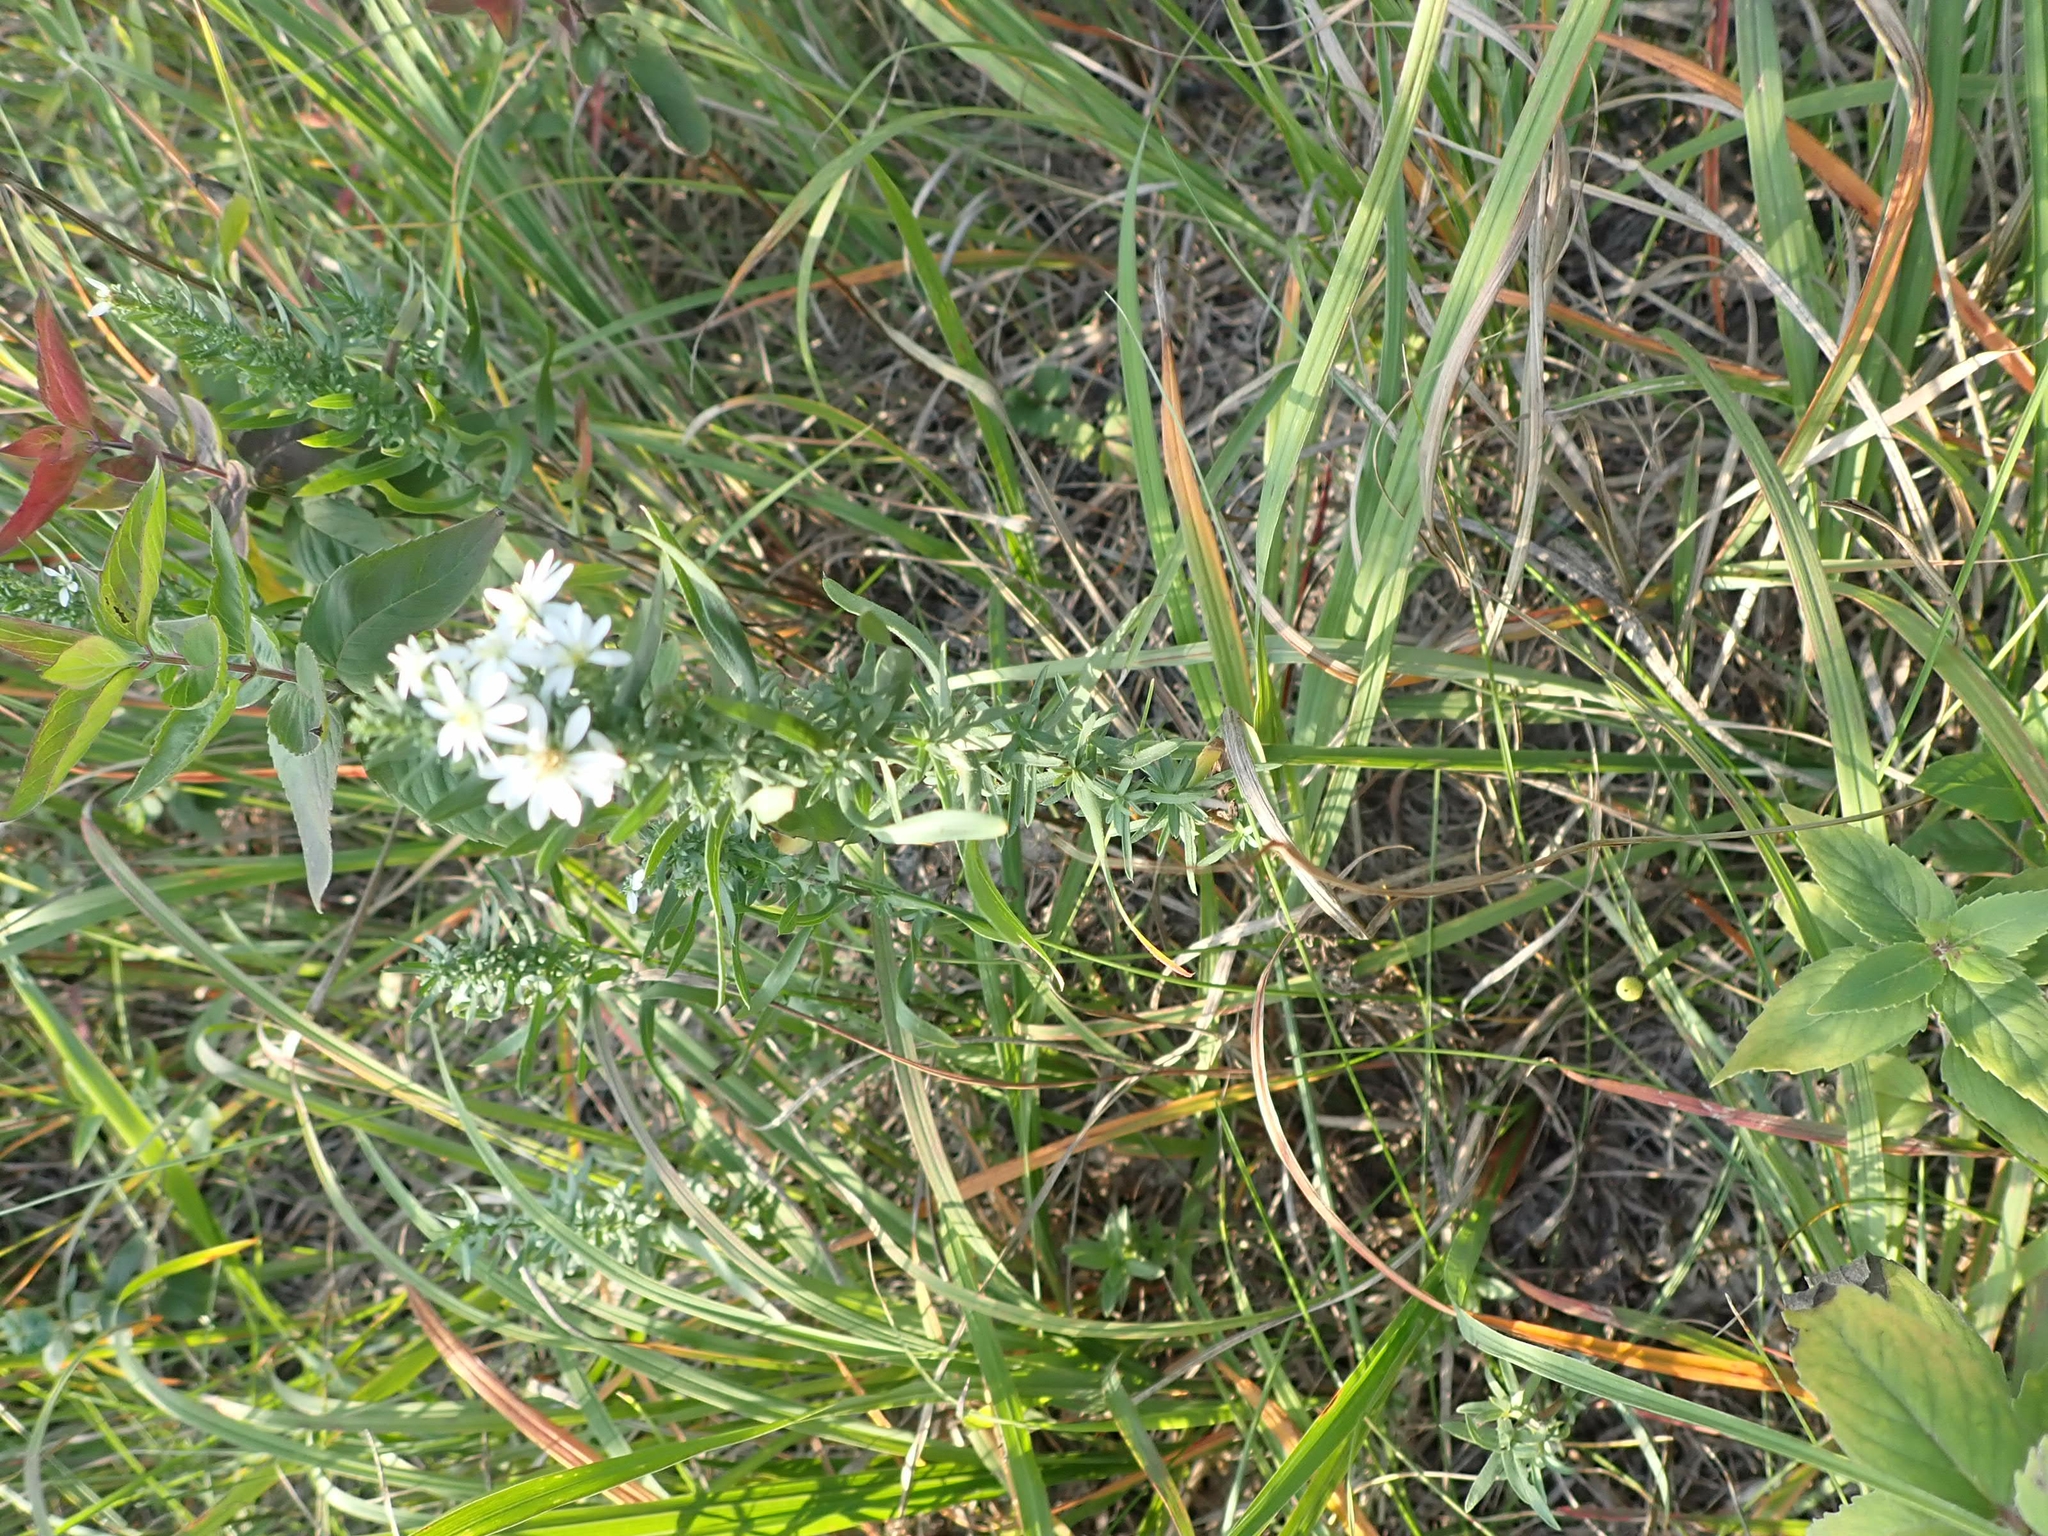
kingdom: Plantae
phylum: Tracheophyta
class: Magnoliopsida
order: Asterales
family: Asteraceae
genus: Symphyotrichum
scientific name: Symphyotrichum ericoides
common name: Heath aster
